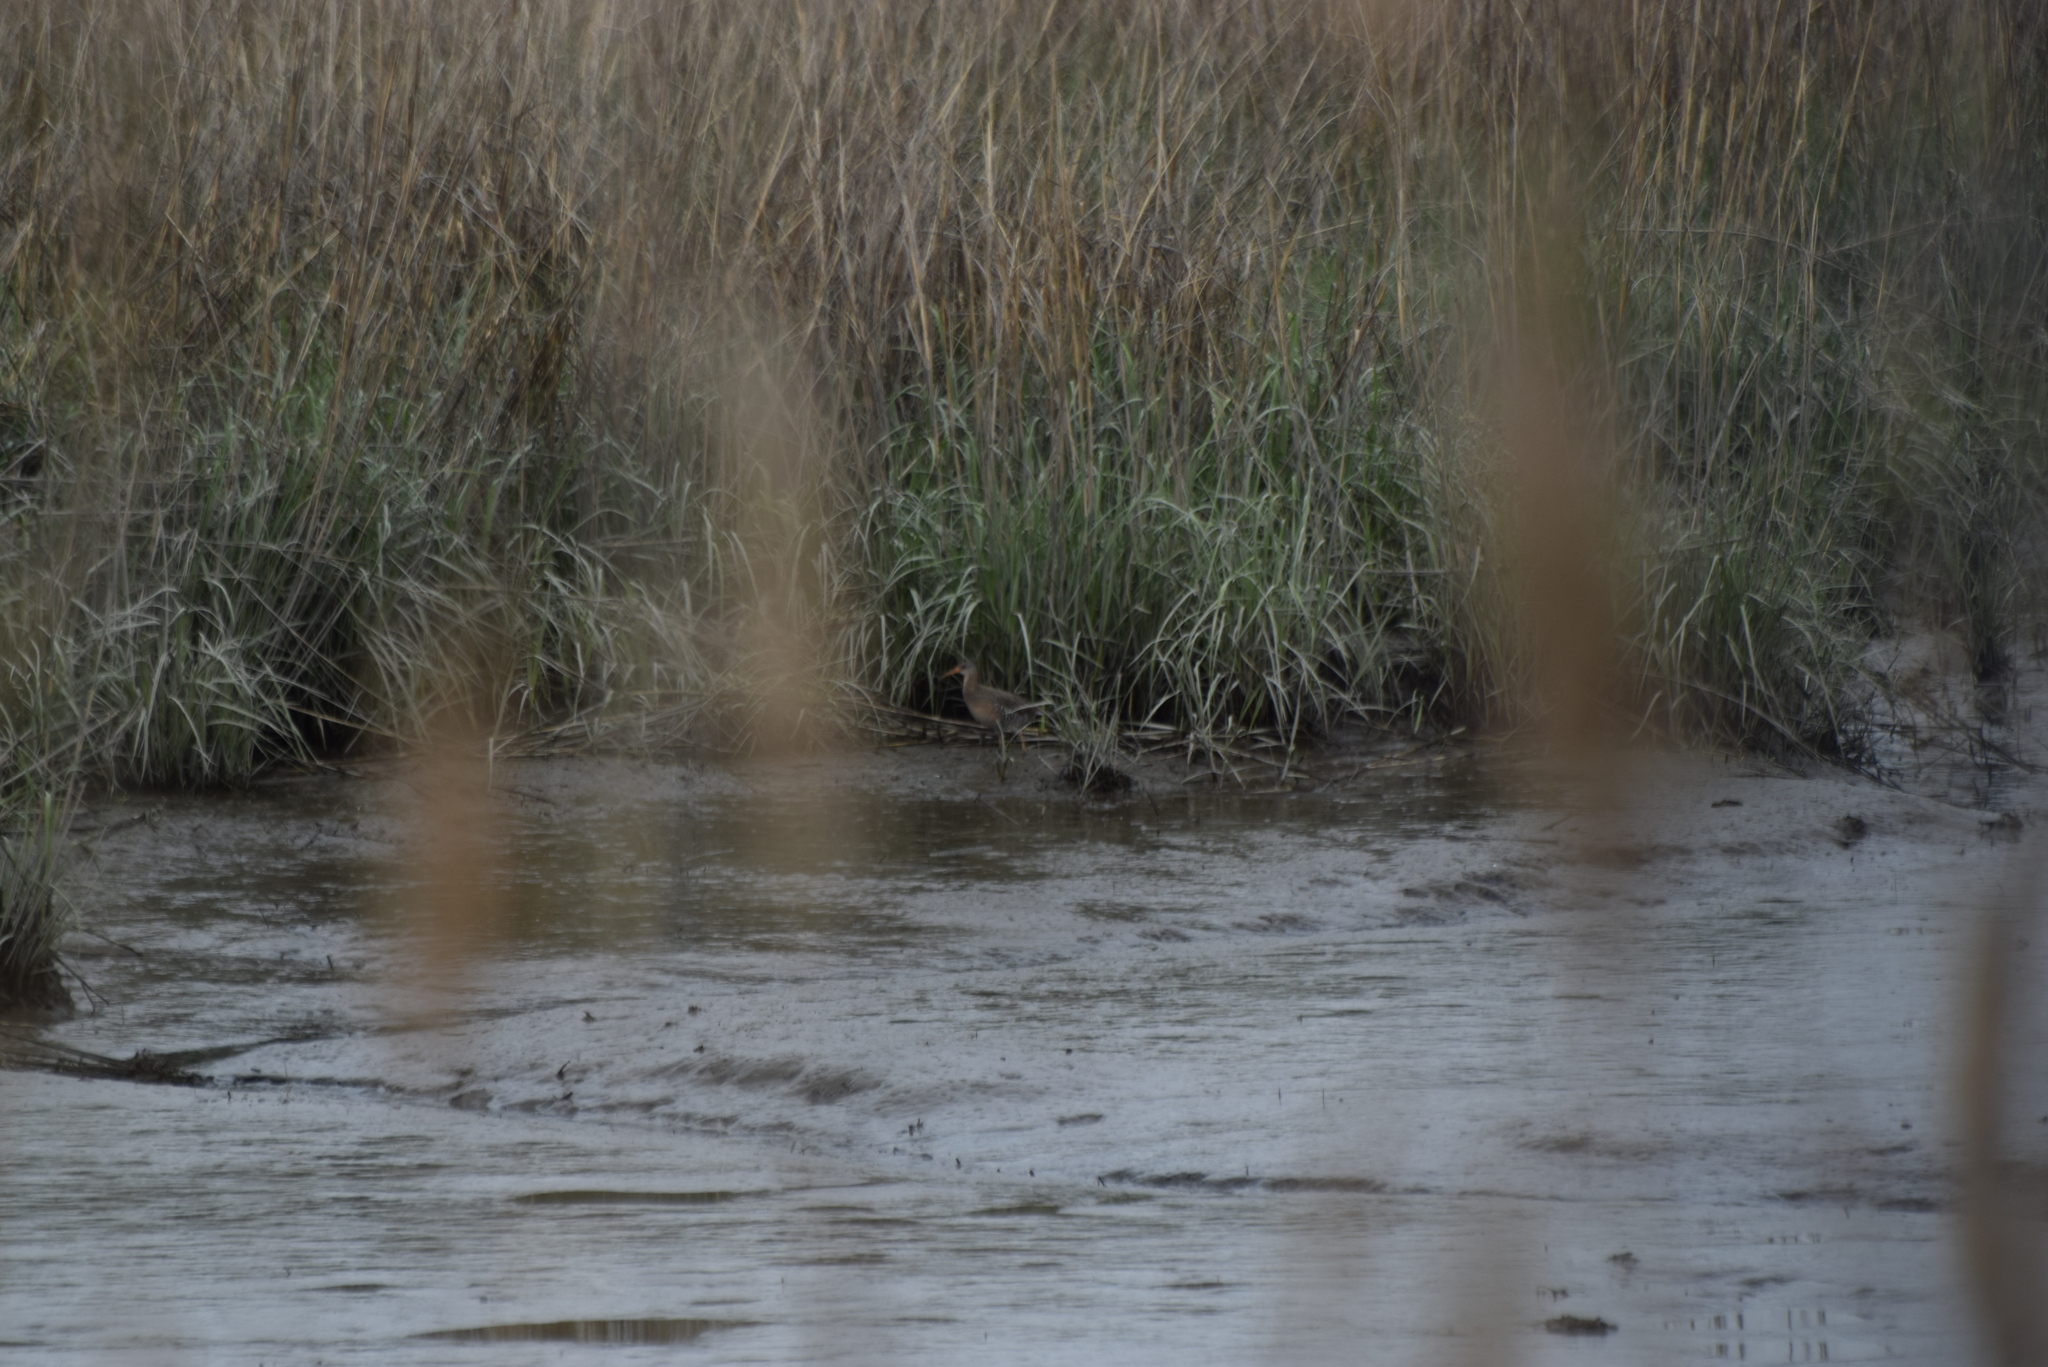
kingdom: Animalia
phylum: Chordata
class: Aves
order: Gruiformes
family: Rallidae
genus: Rallus
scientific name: Rallus crepitans
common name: Clapper rail
